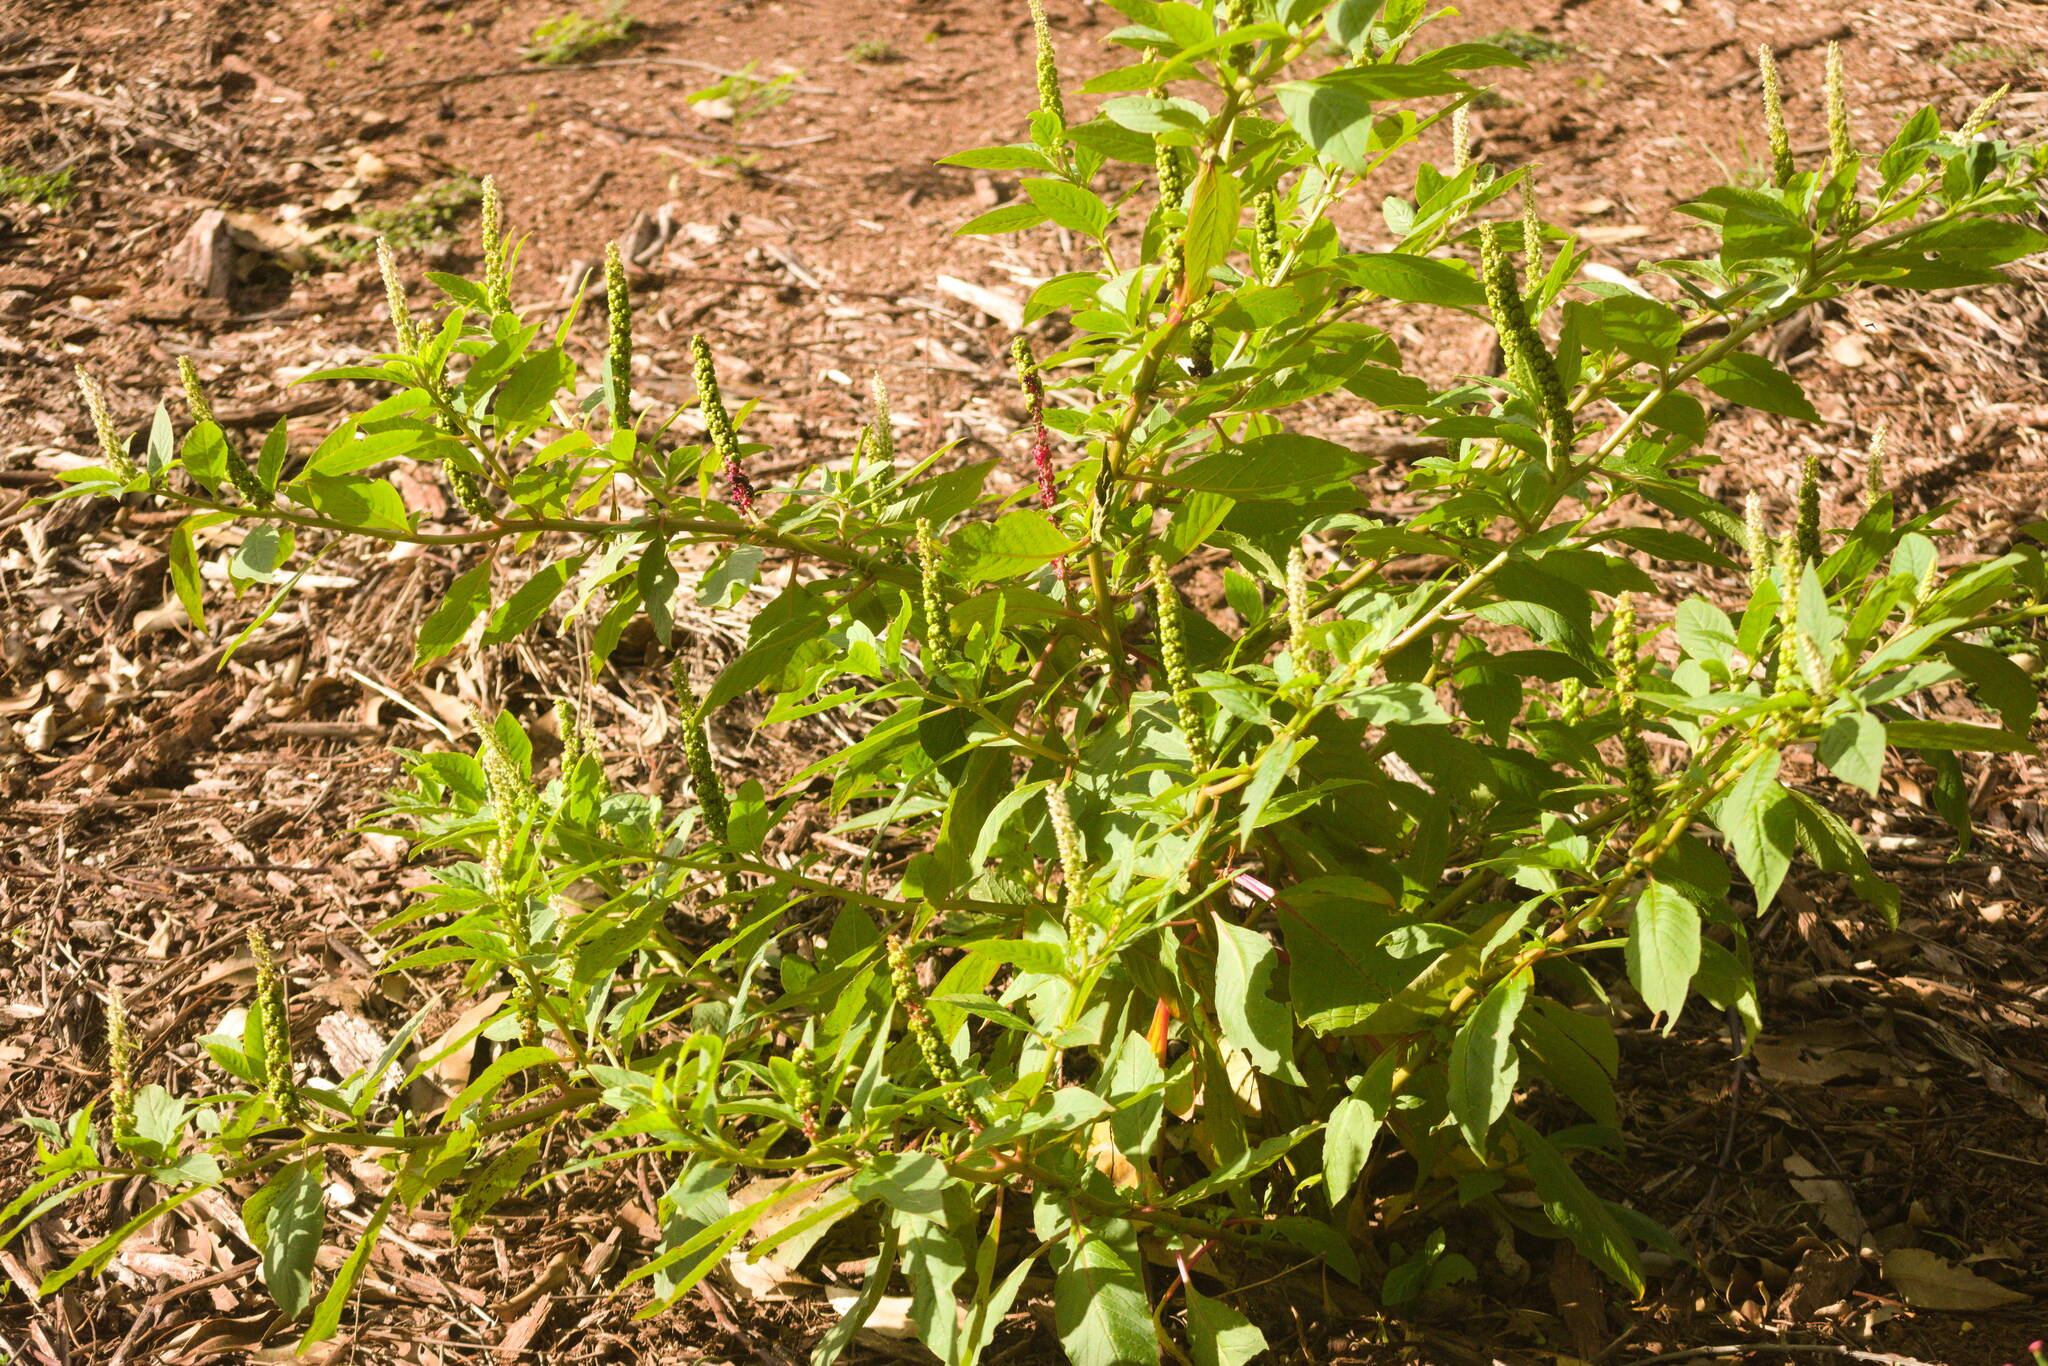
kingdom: Plantae
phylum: Tracheophyta
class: Magnoliopsida
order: Caryophyllales
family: Phytolaccaceae
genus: Phytolacca
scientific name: Phytolacca icosandra
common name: Button pokeweed
